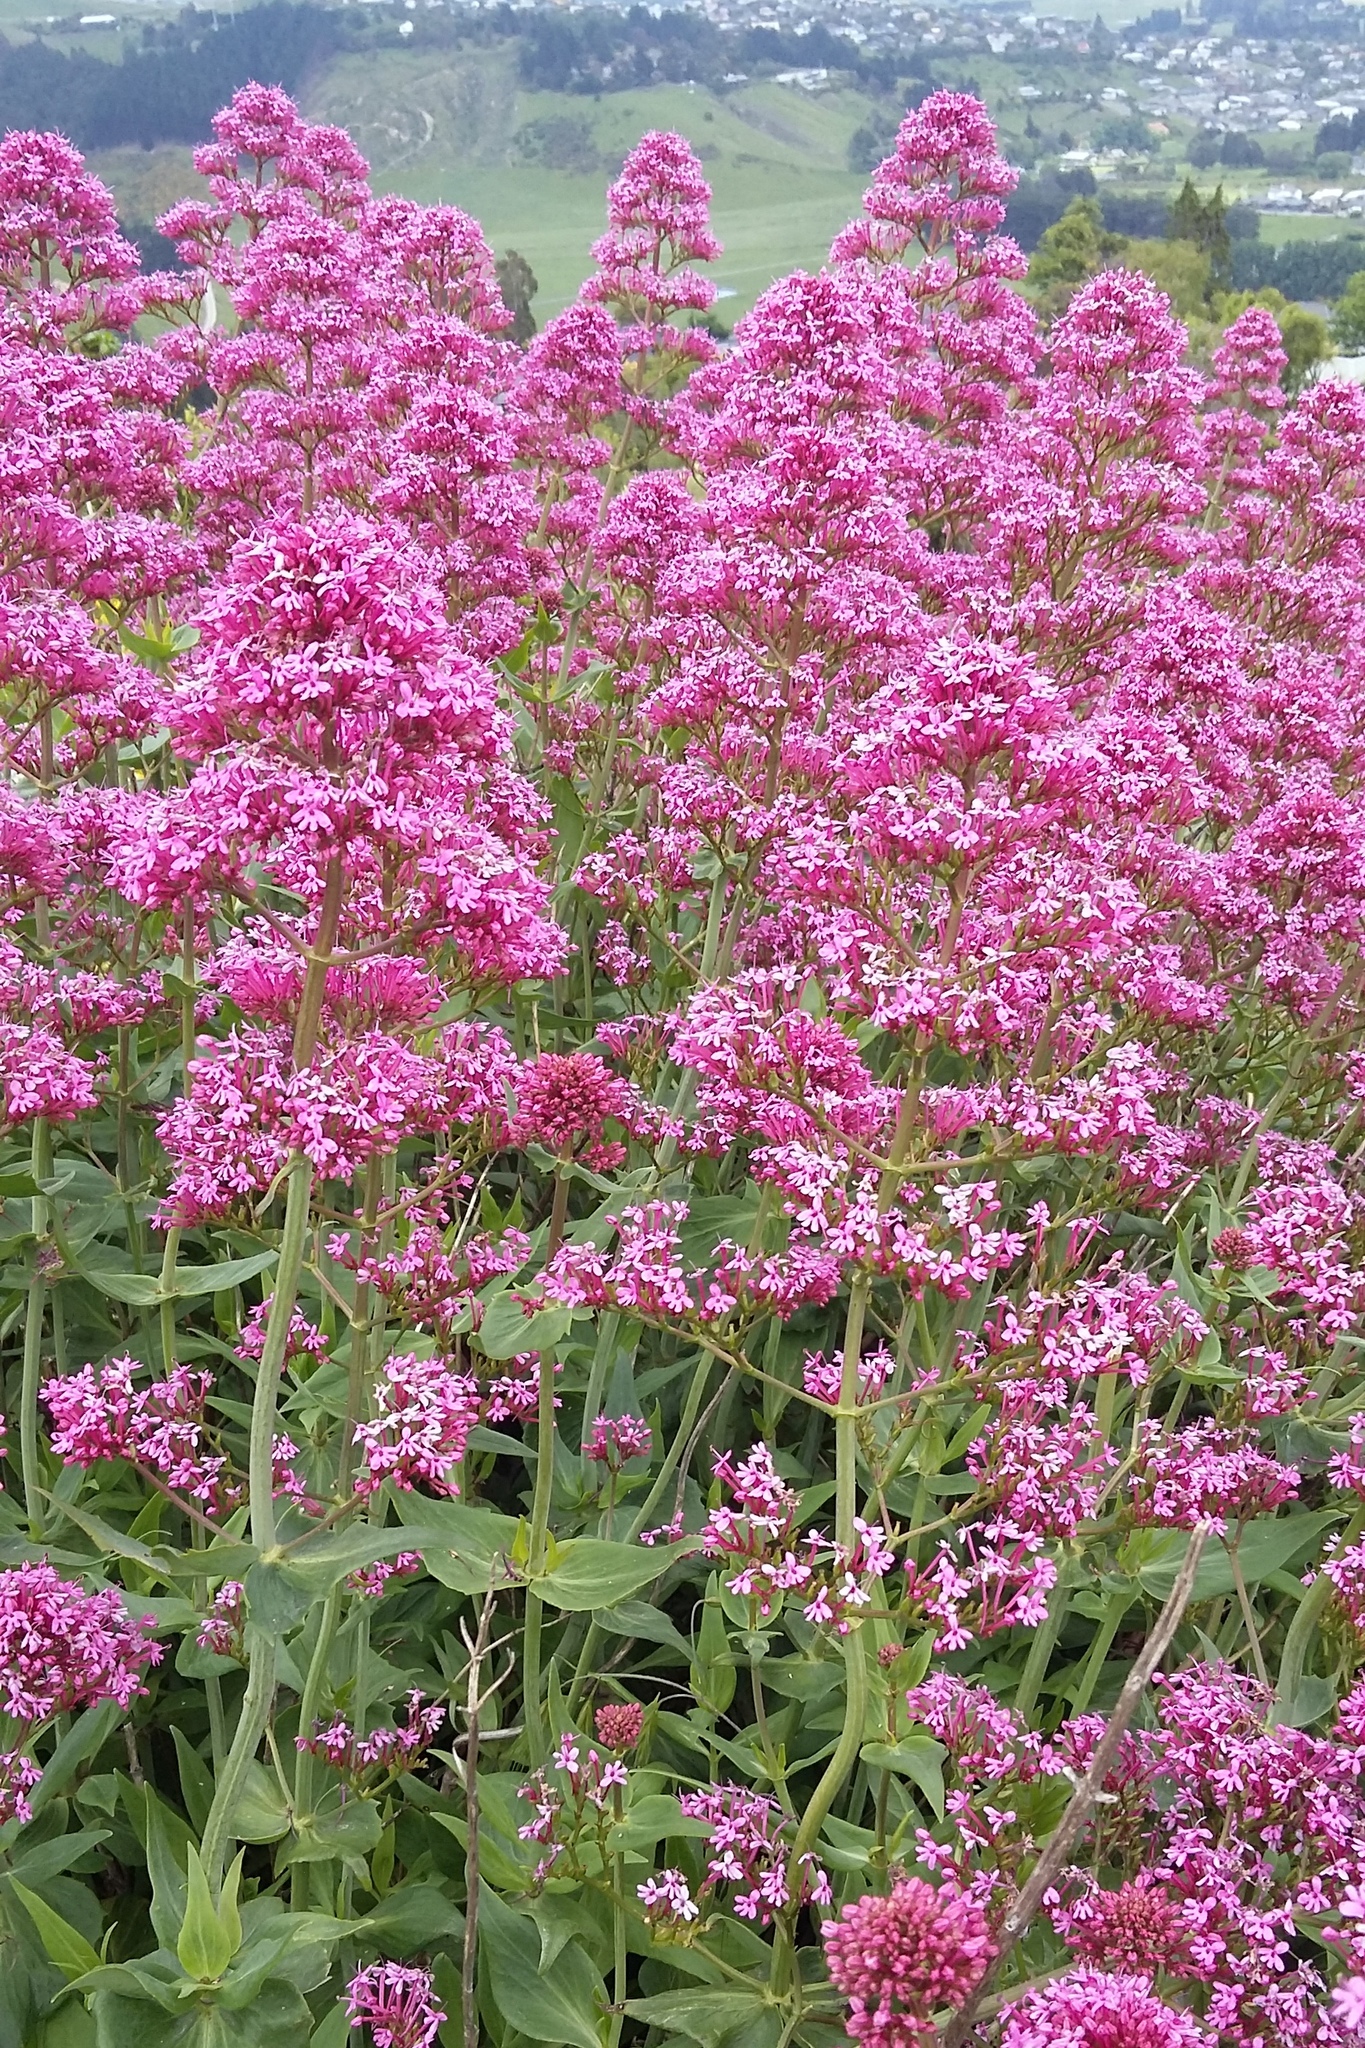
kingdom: Plantae
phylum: Tracheophyta
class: Magnoliopsida
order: Dipsacales
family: Caprifoliaceae
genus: Centranthus
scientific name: Centranthus ruber
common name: Red valerian
